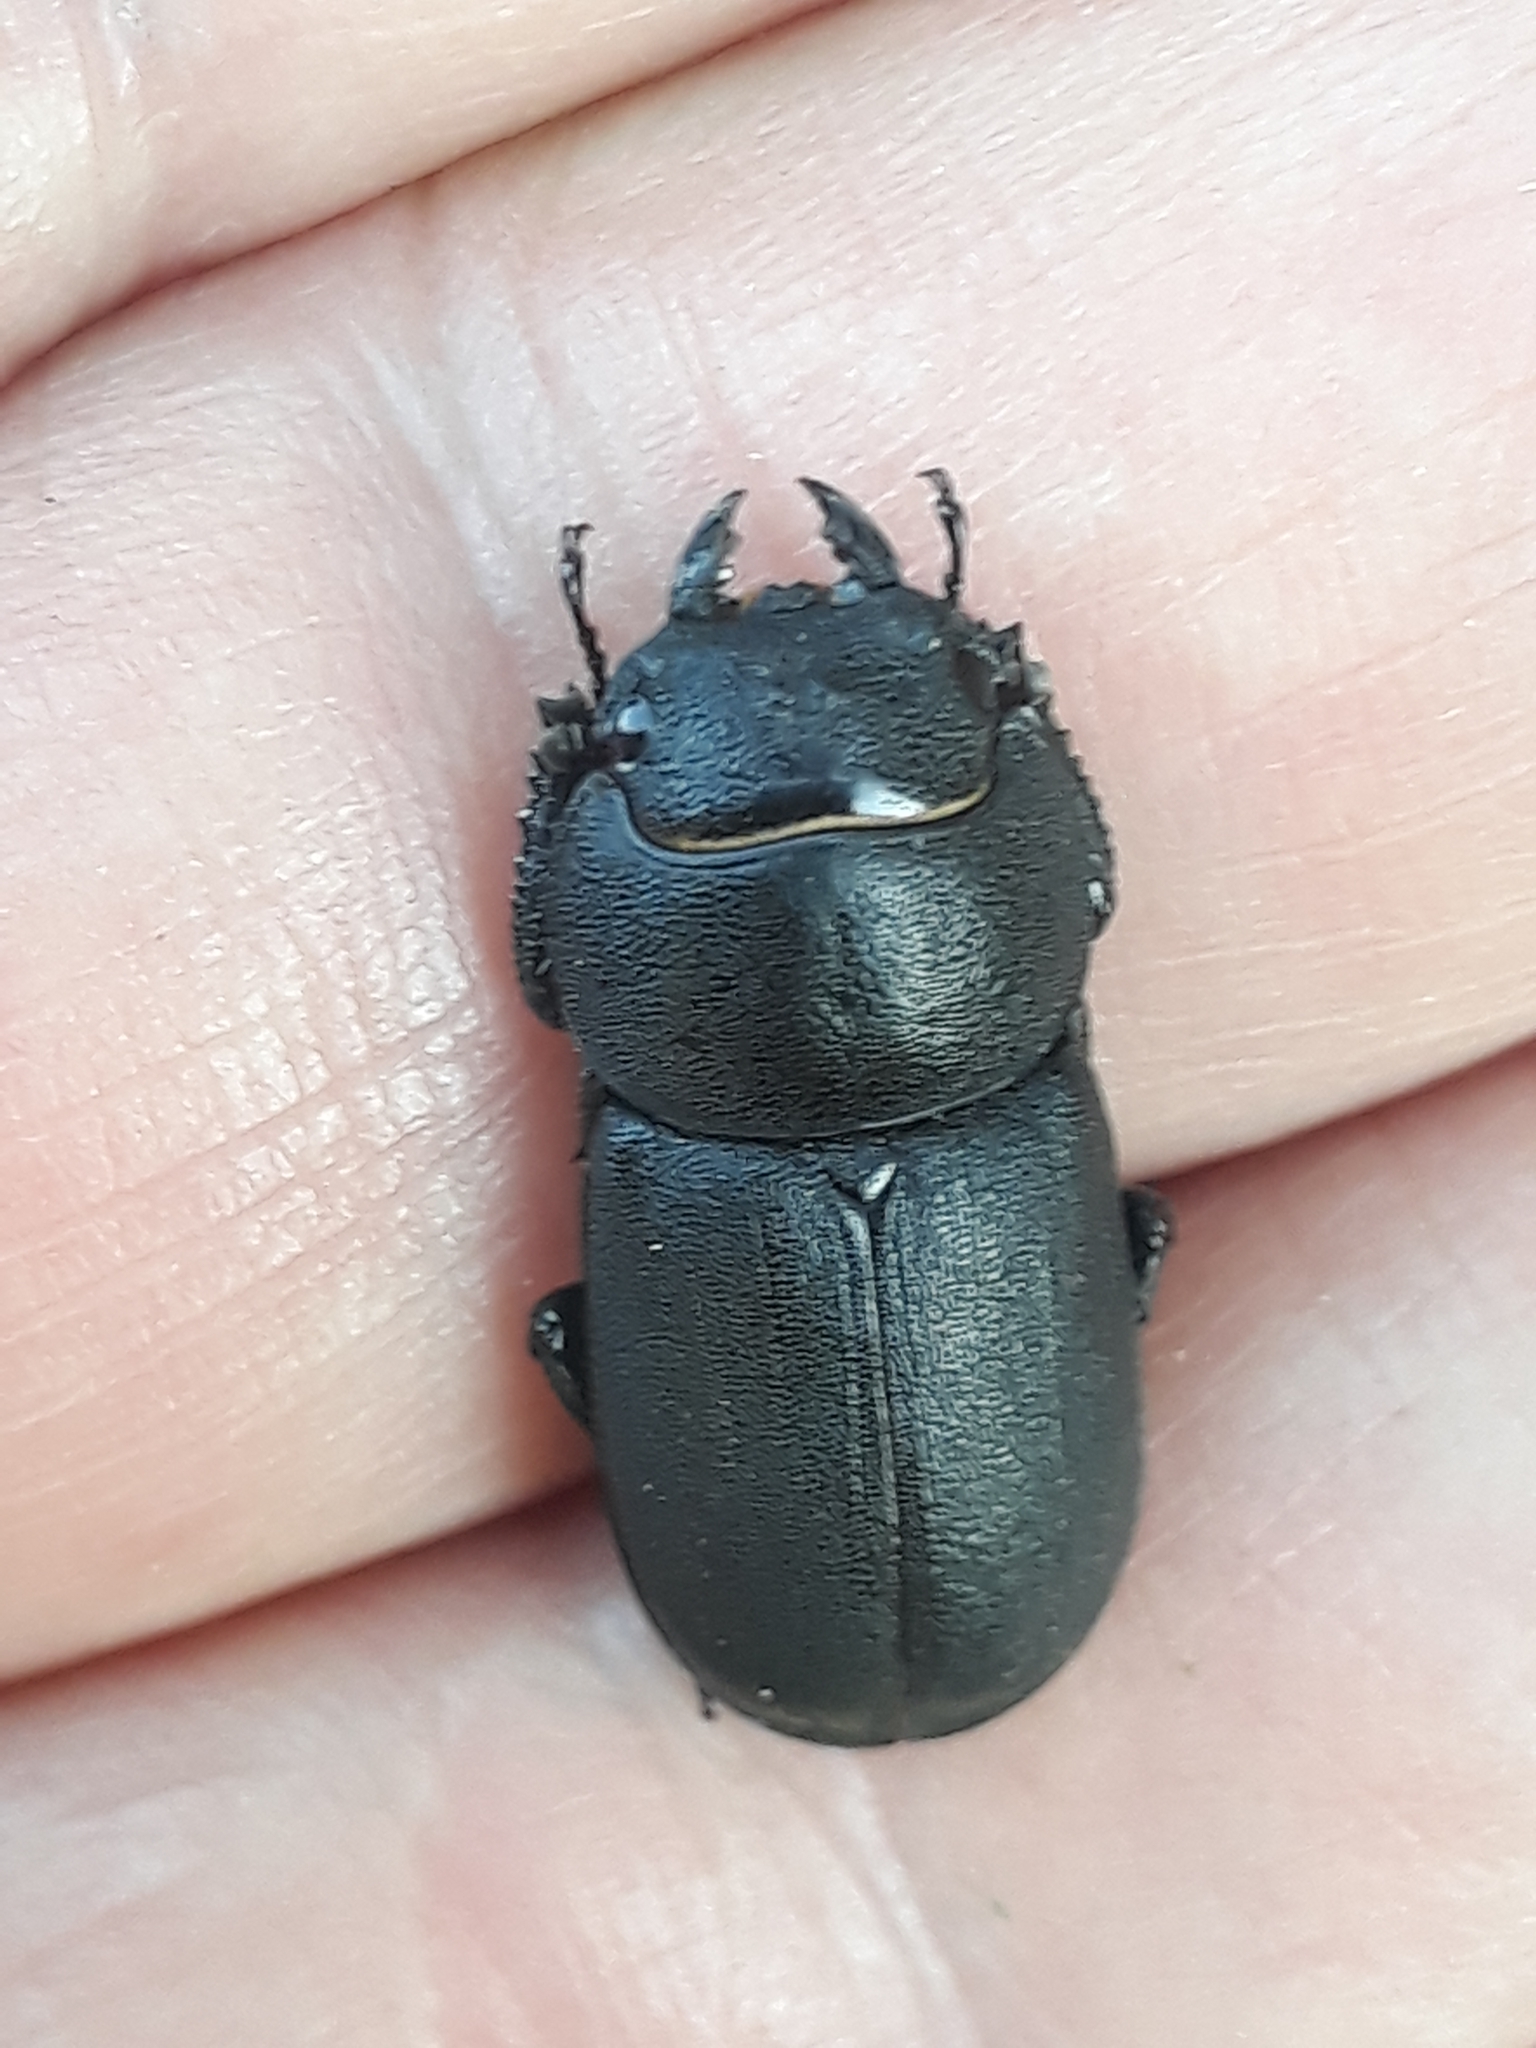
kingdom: Animalia
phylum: Arthropoda
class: Insecta
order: Coleoptera
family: Lucanidae
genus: Dorcus
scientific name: Dorcus parallelipipedus
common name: Lesser stag beetle
